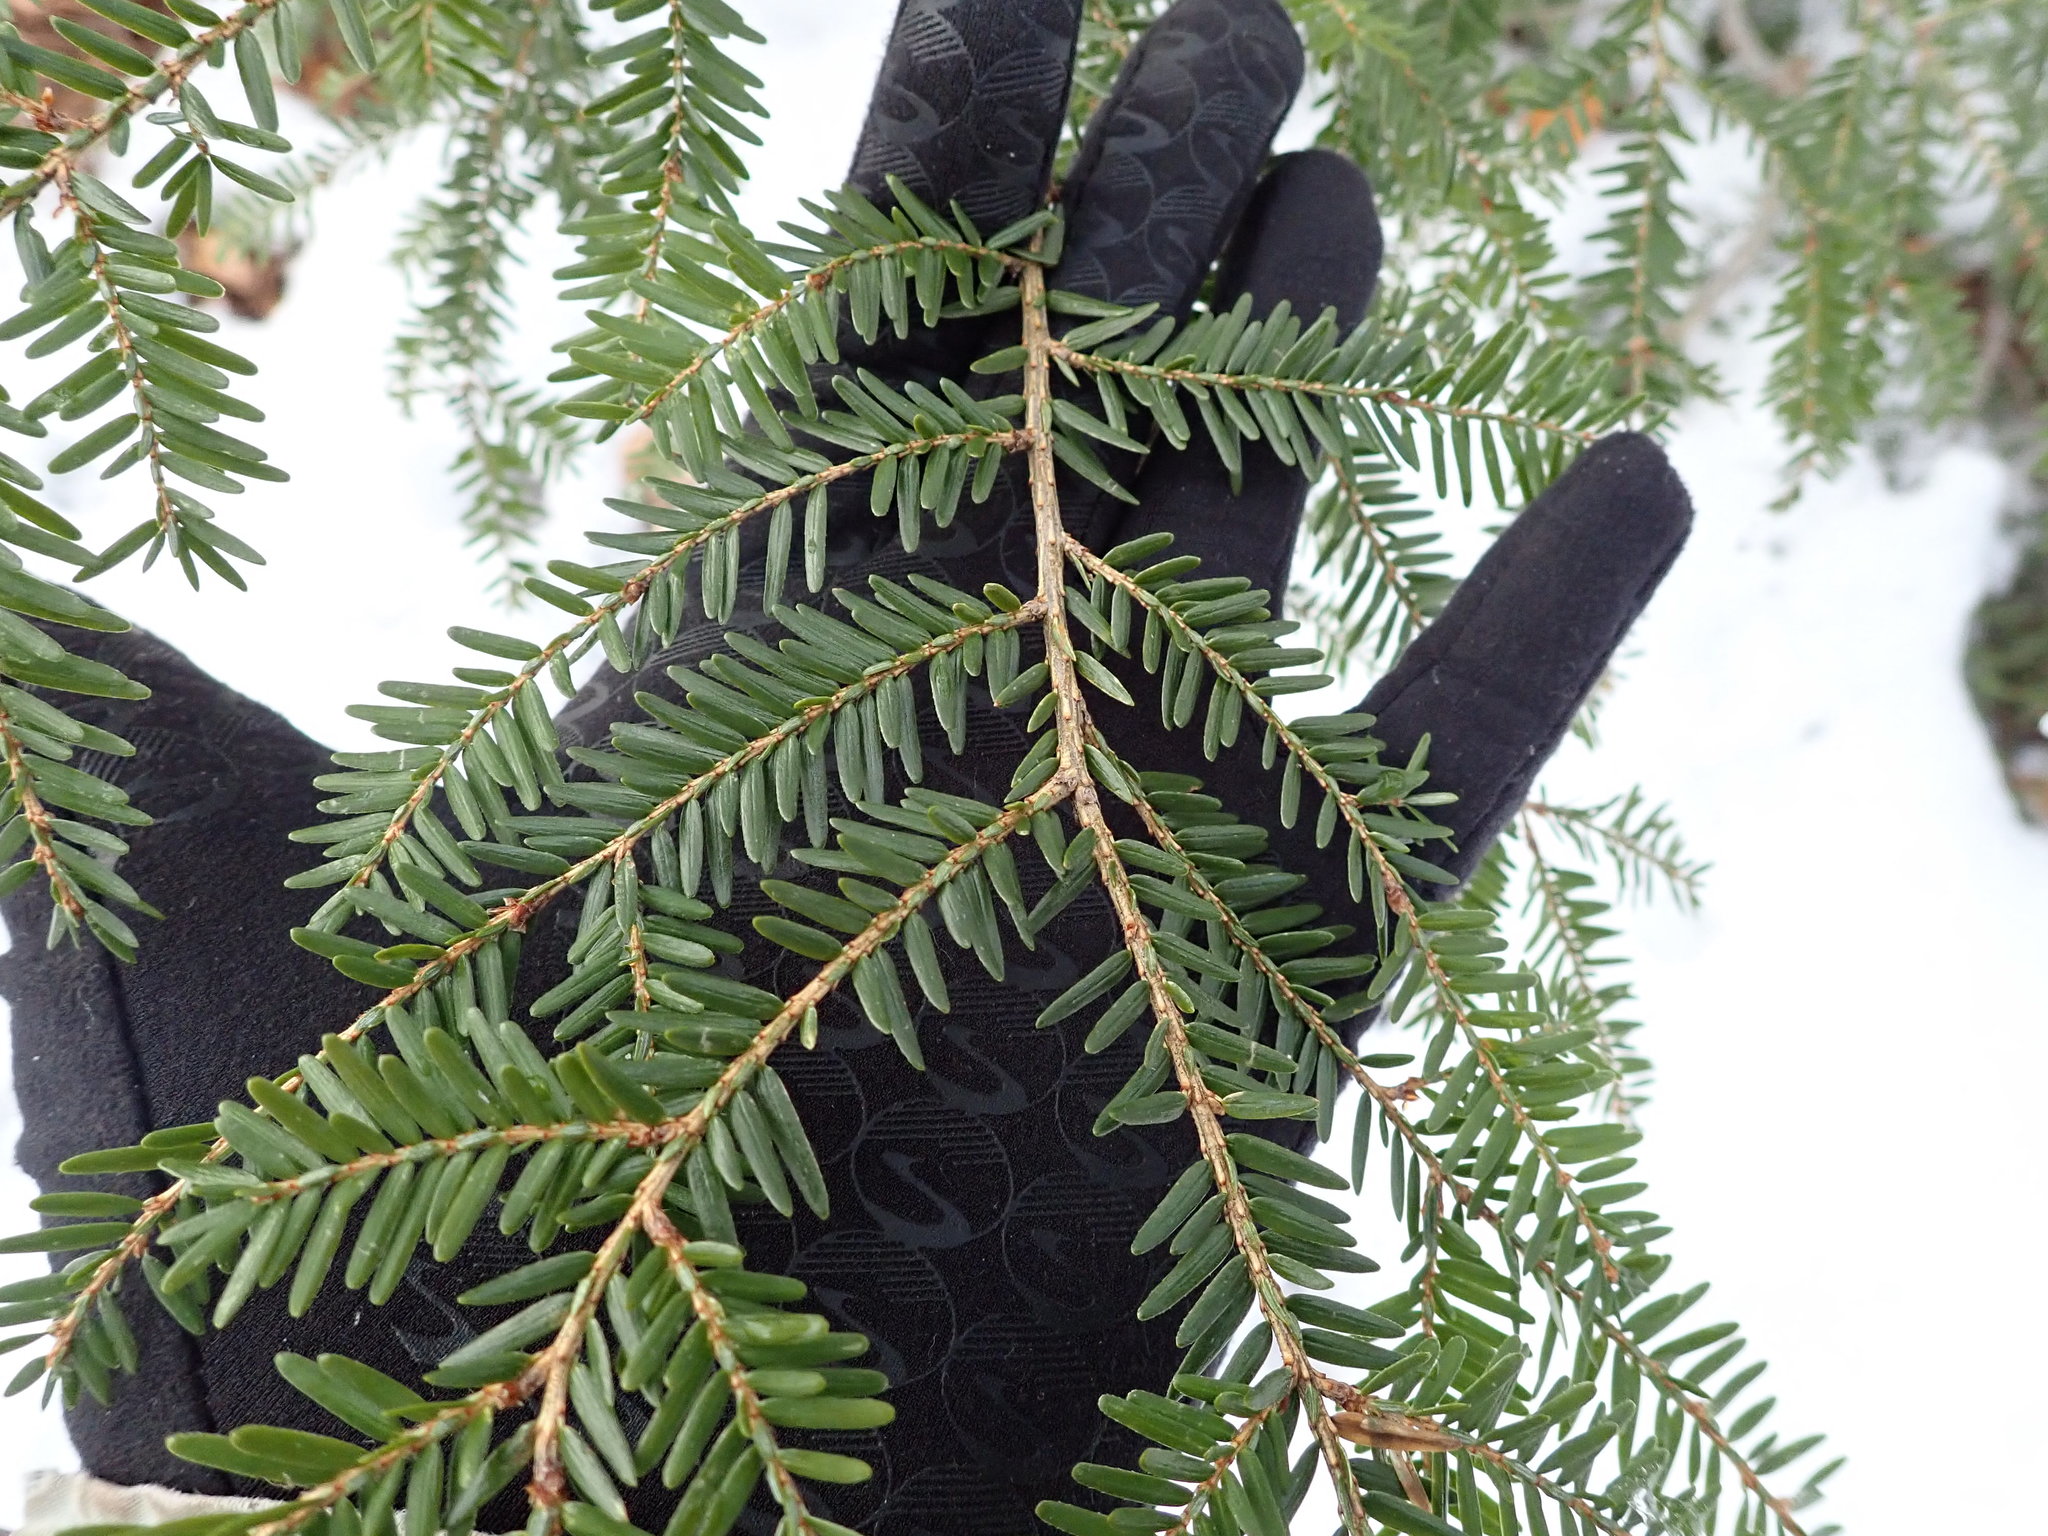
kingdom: Plantae
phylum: Tracheophyta
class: Pinopsida
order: Pinales
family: Pinaceae
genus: Tsuga
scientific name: Tsuga canadensis
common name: Eastern hemlock
